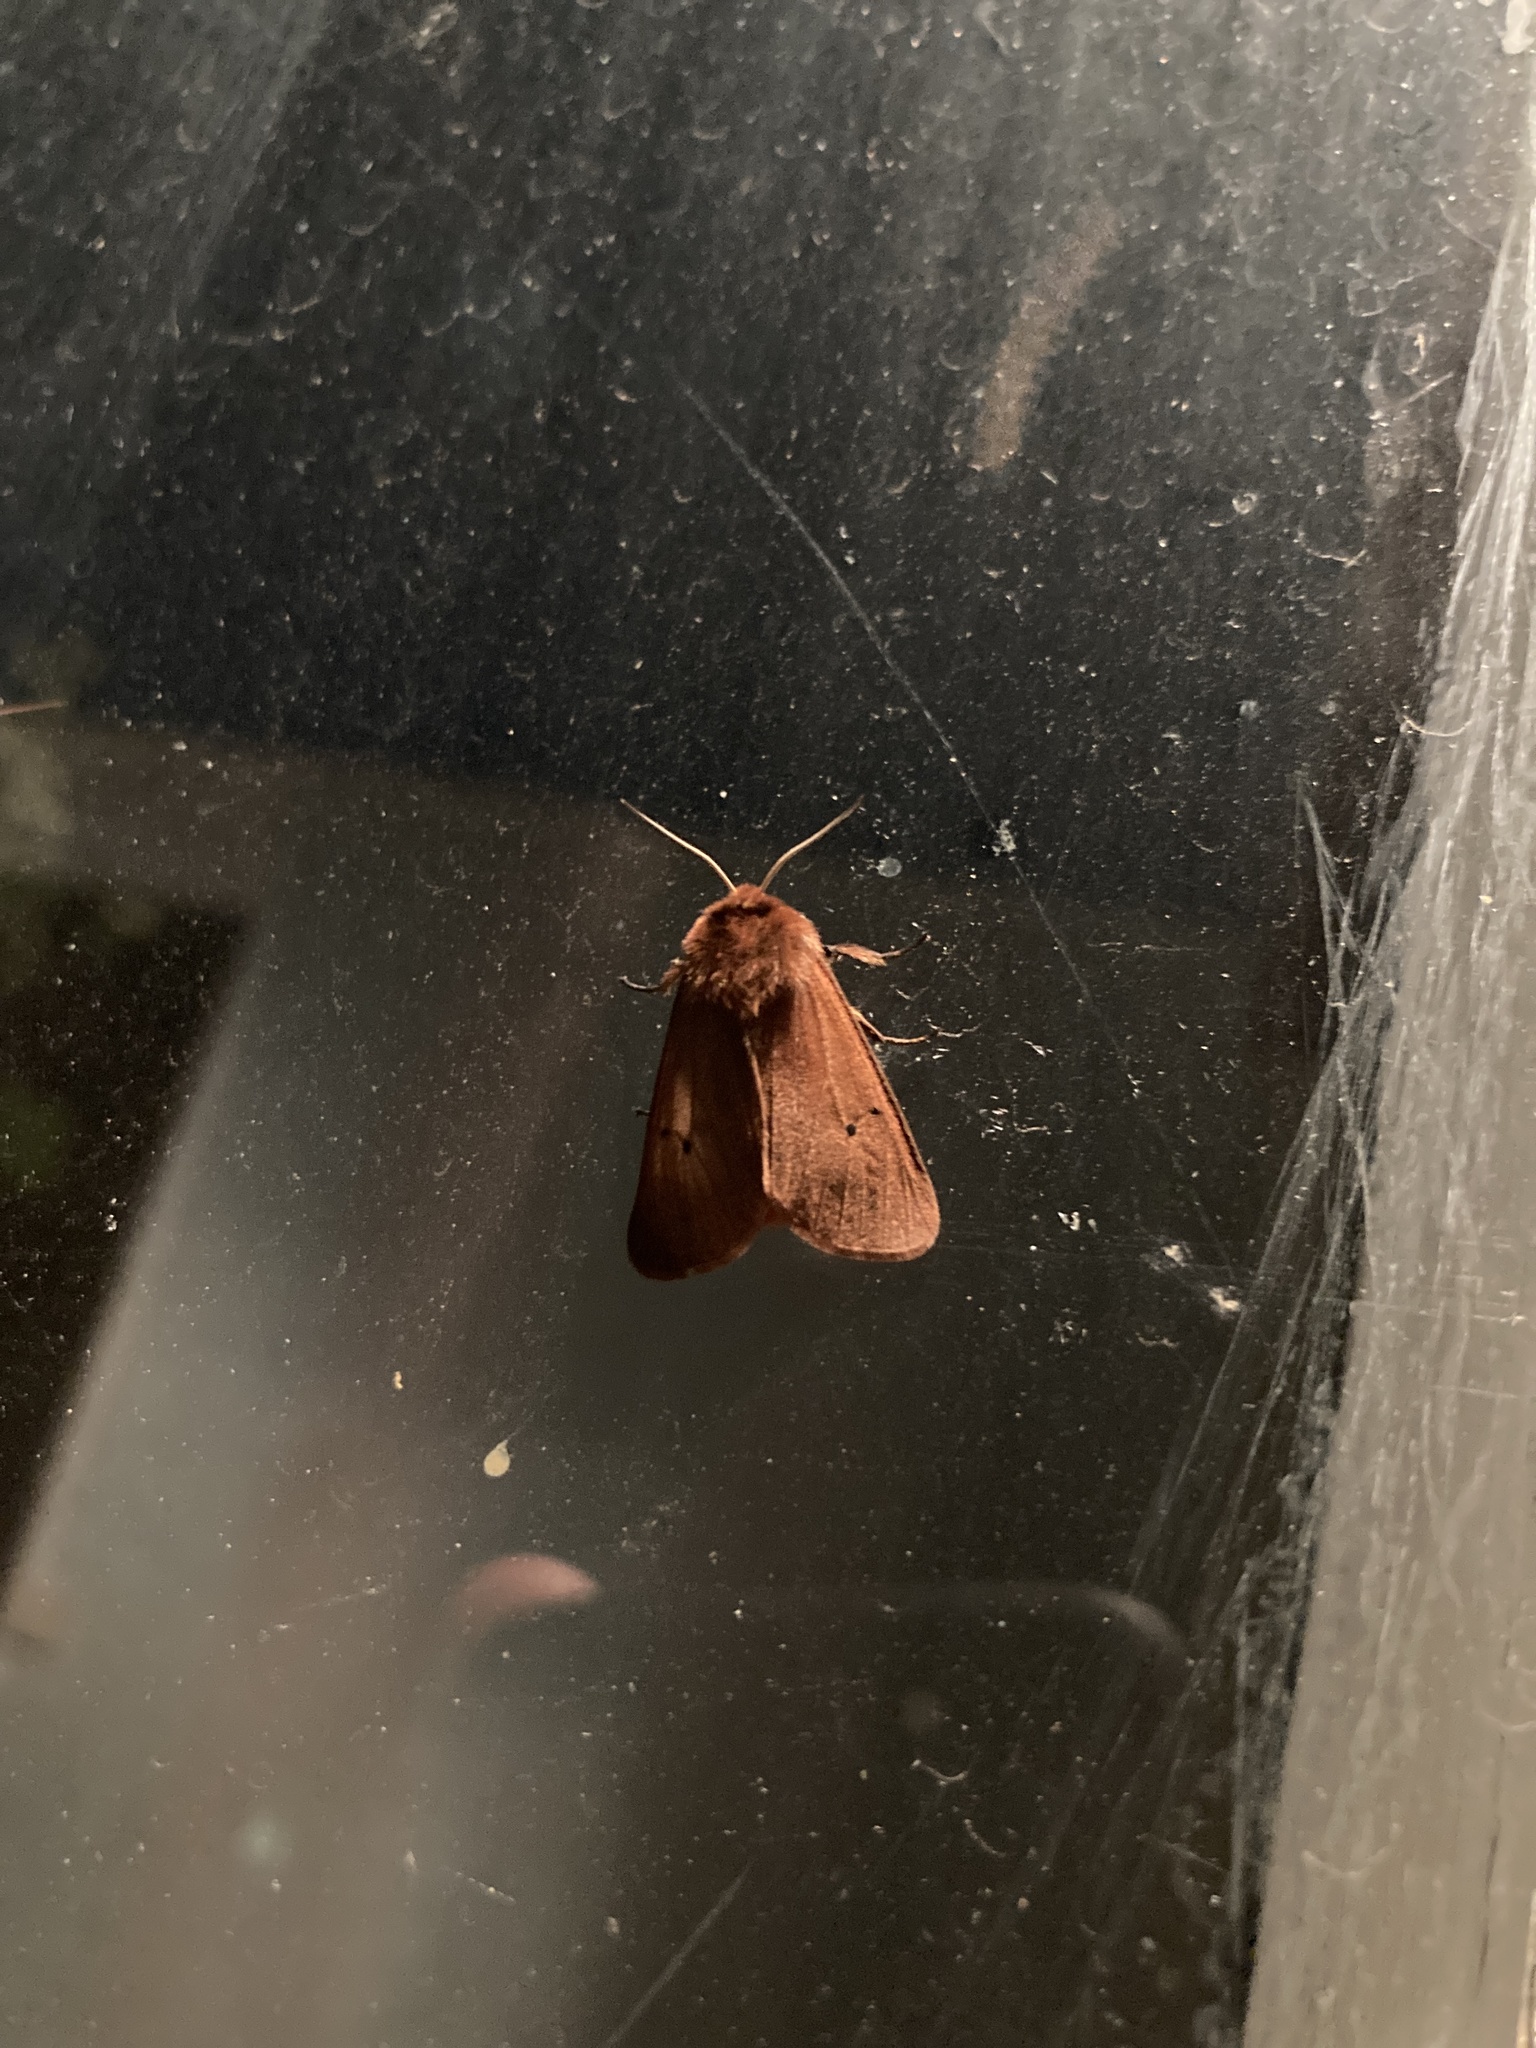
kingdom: Animalia
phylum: Arthropoda
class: Insecta
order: Lepidoptera
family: Erebidae
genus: Phragmatobia
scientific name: Phragmatobia fuliginosa
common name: Ruby tiger
